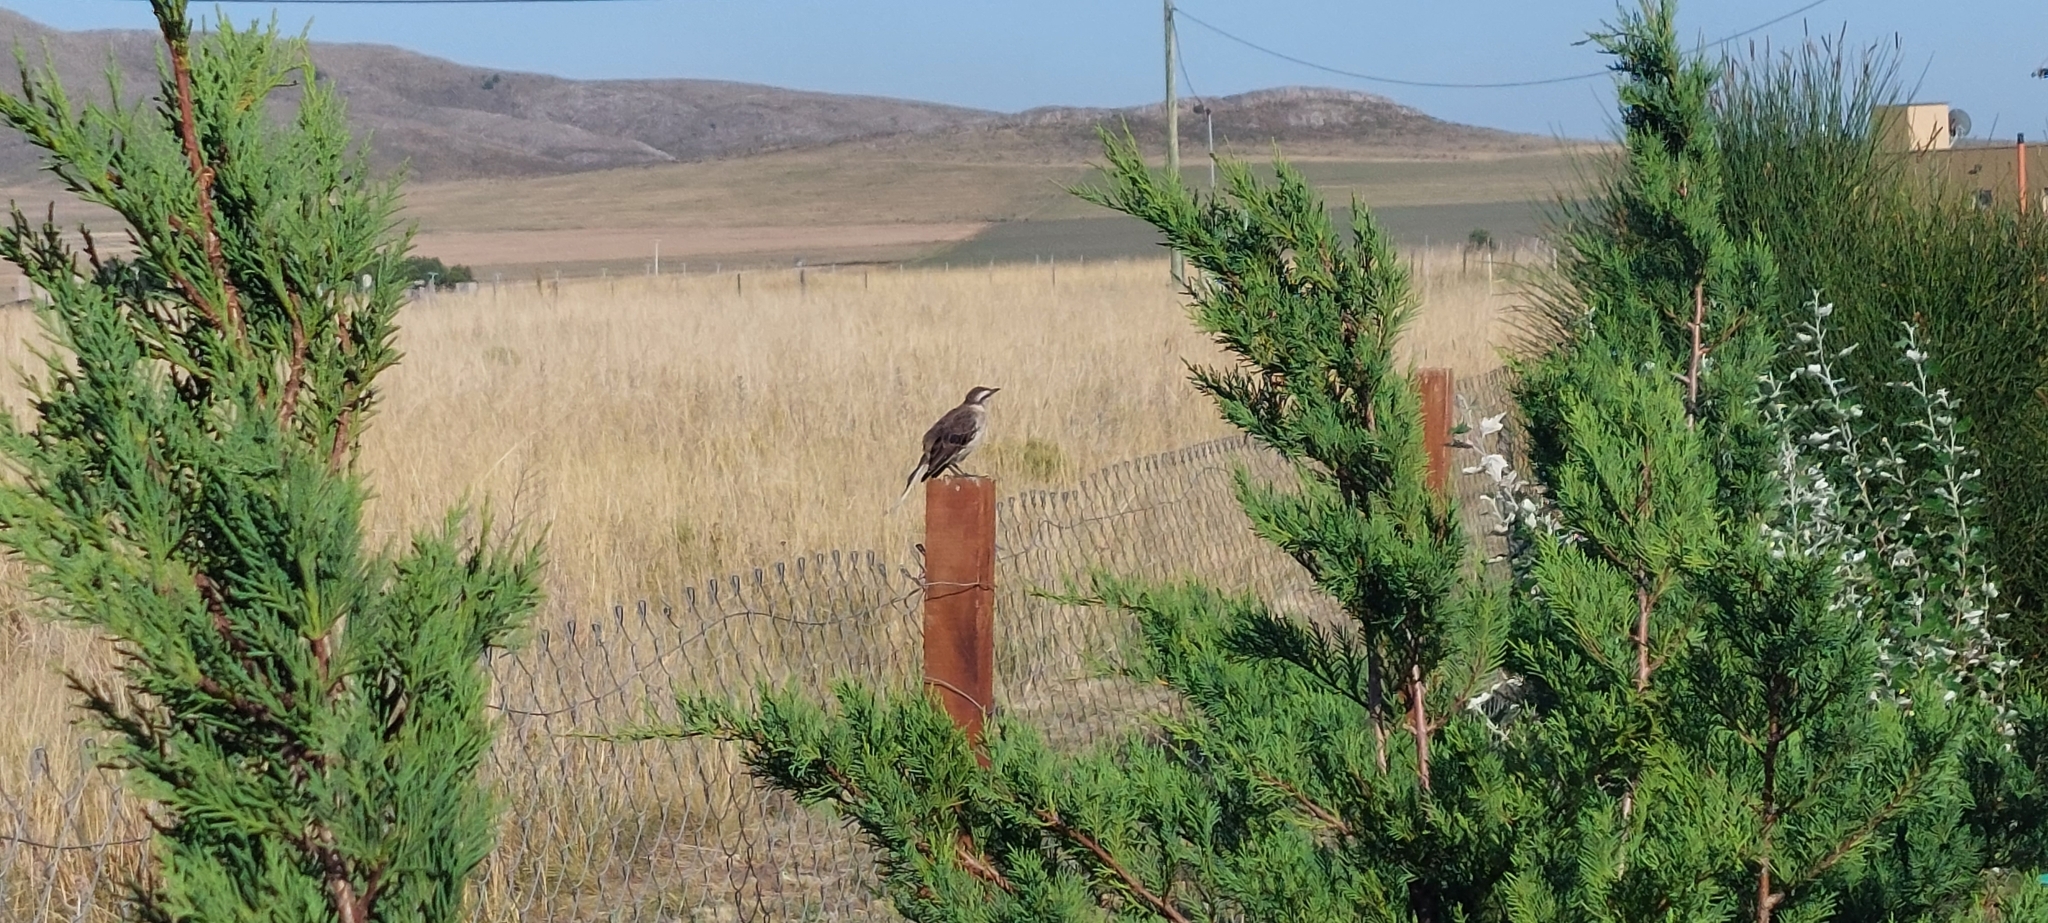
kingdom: Animalia
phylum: Chordata
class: Aves
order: Passeriformes
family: Mimidae
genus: Mimus
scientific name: Mimus saturninus
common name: Chalk-browed mockingbird
